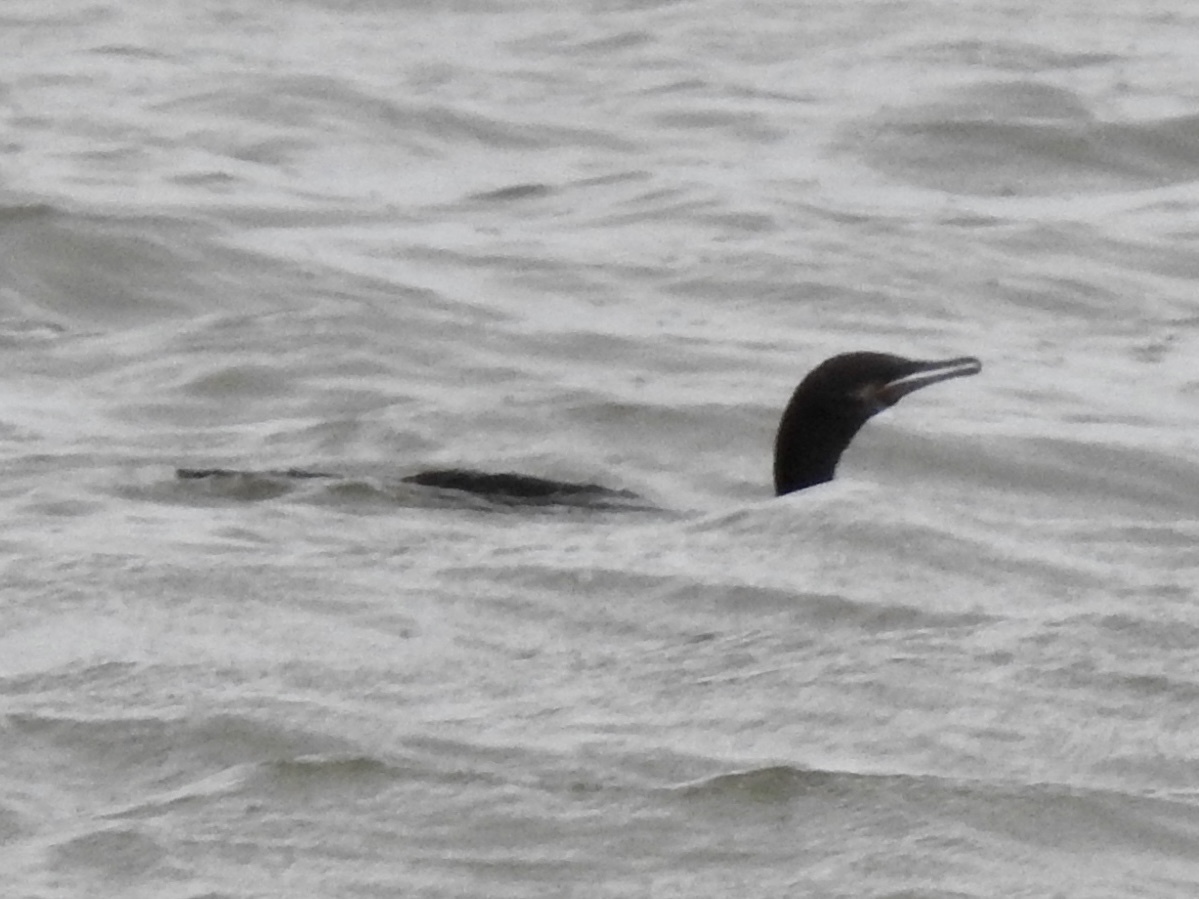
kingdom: Animalia
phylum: Chordata
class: Aves
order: Suliformes
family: Phalacrocoracidae
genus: Phalacrocorax
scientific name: Phalacrocorax brasilianus
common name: Neotropic cormorant
